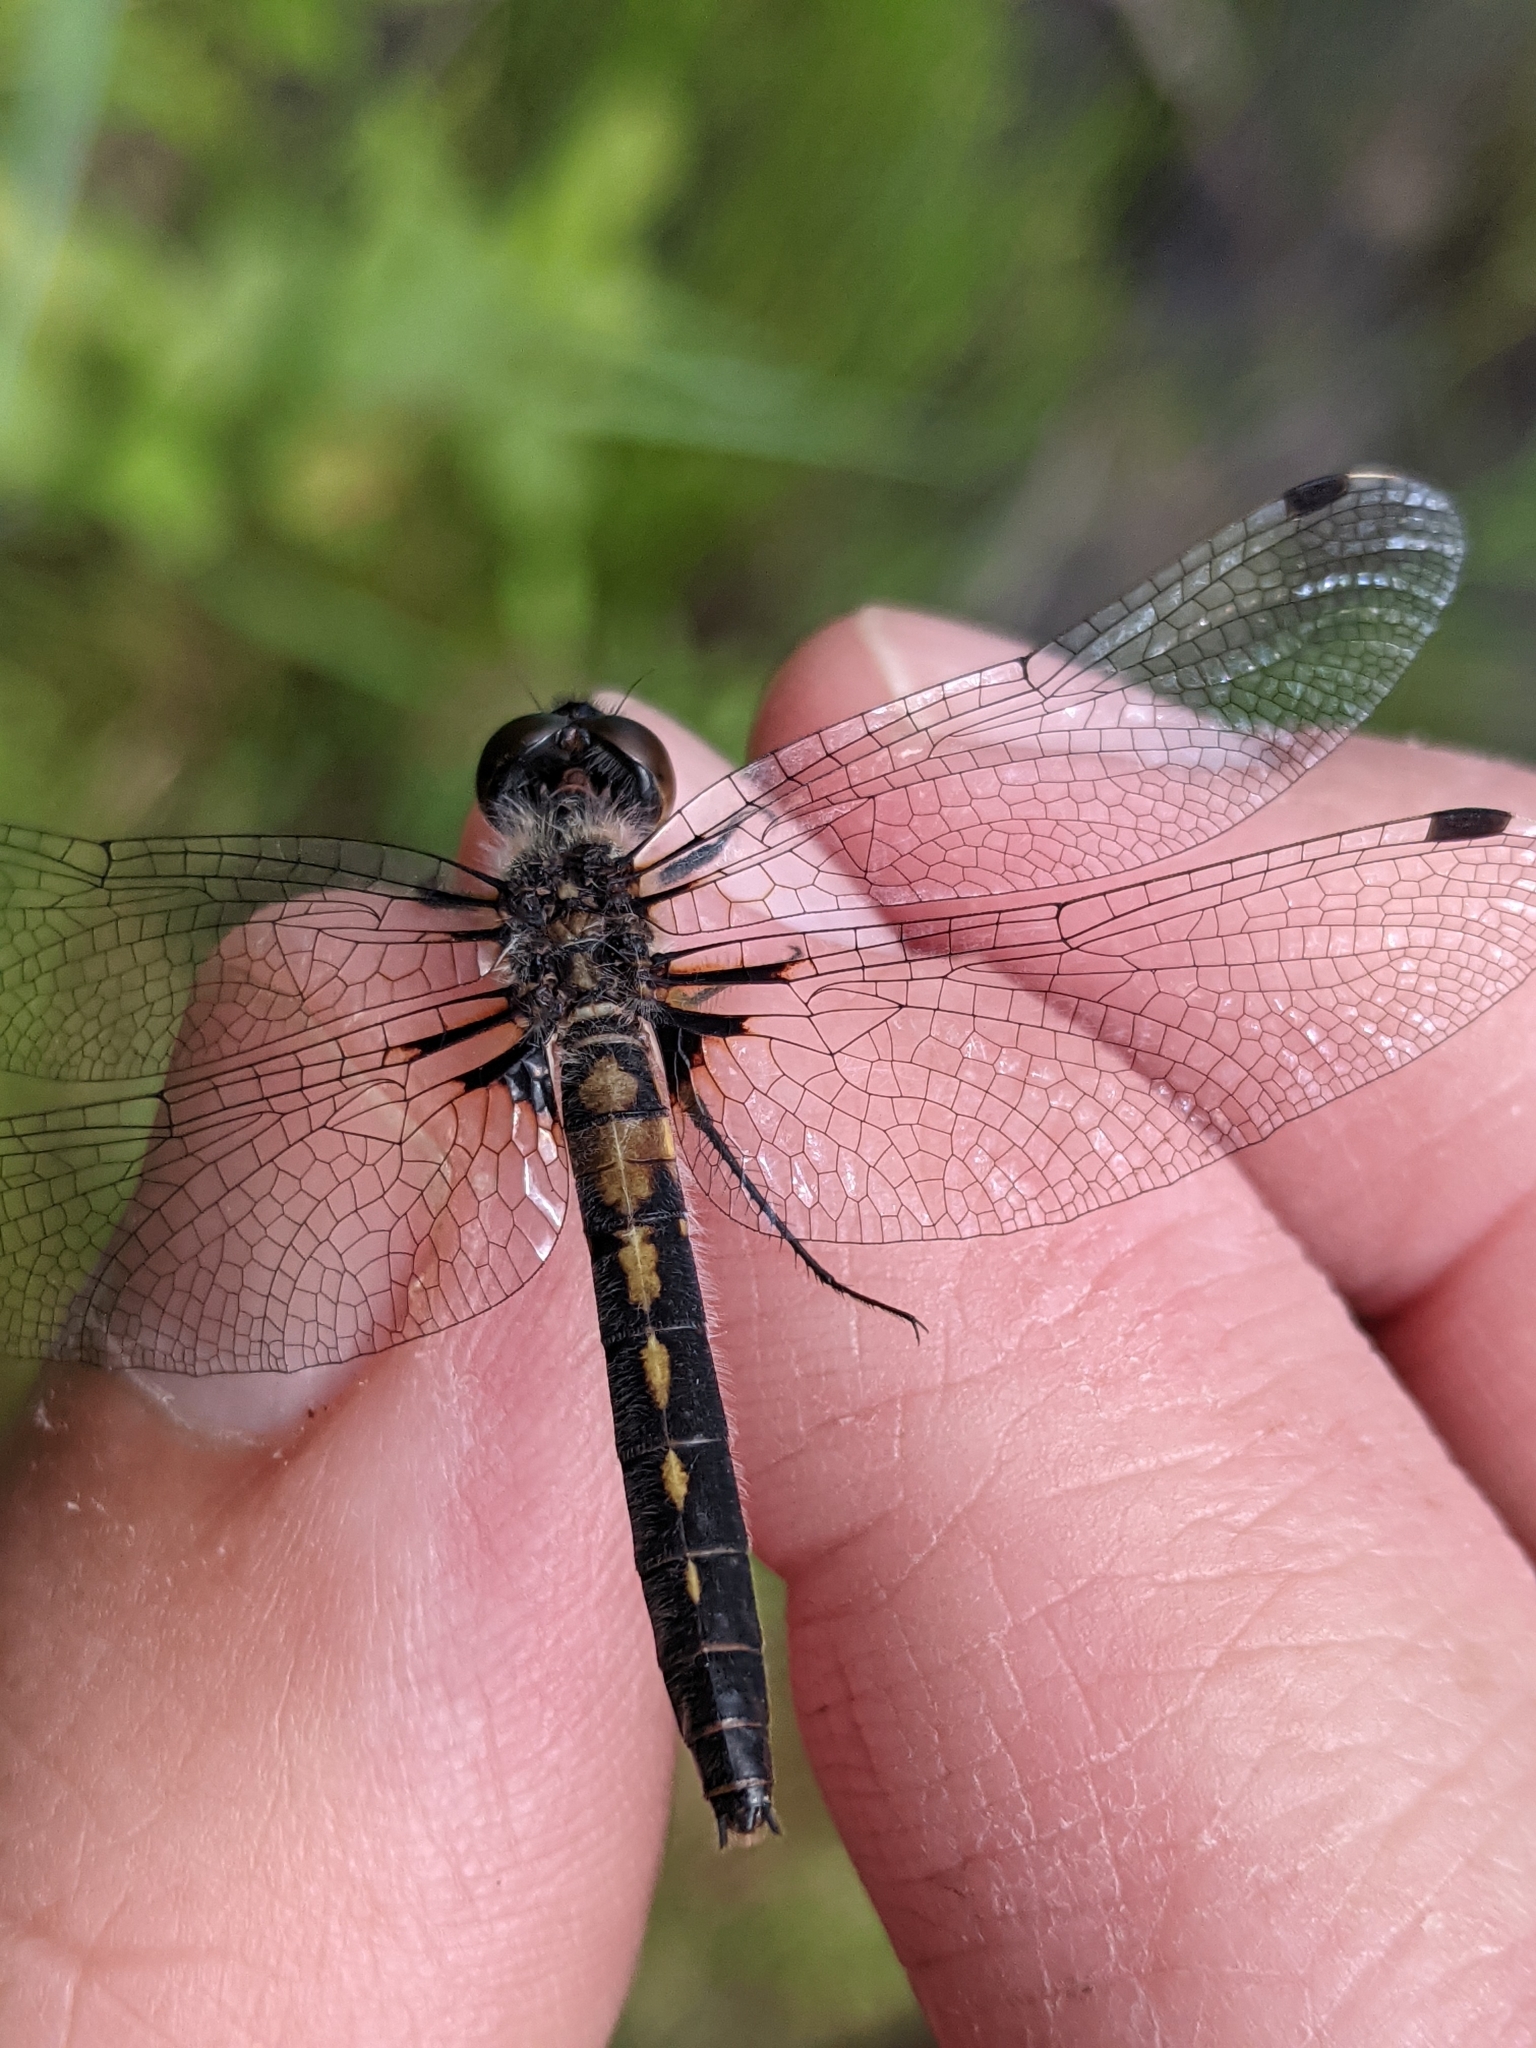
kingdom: Animalia
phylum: Arthropoda
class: Insecta
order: Odonata
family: Libellulidae
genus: Leucorrhinia
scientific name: Leucorrhinia frigida
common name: Frosted whiteface
